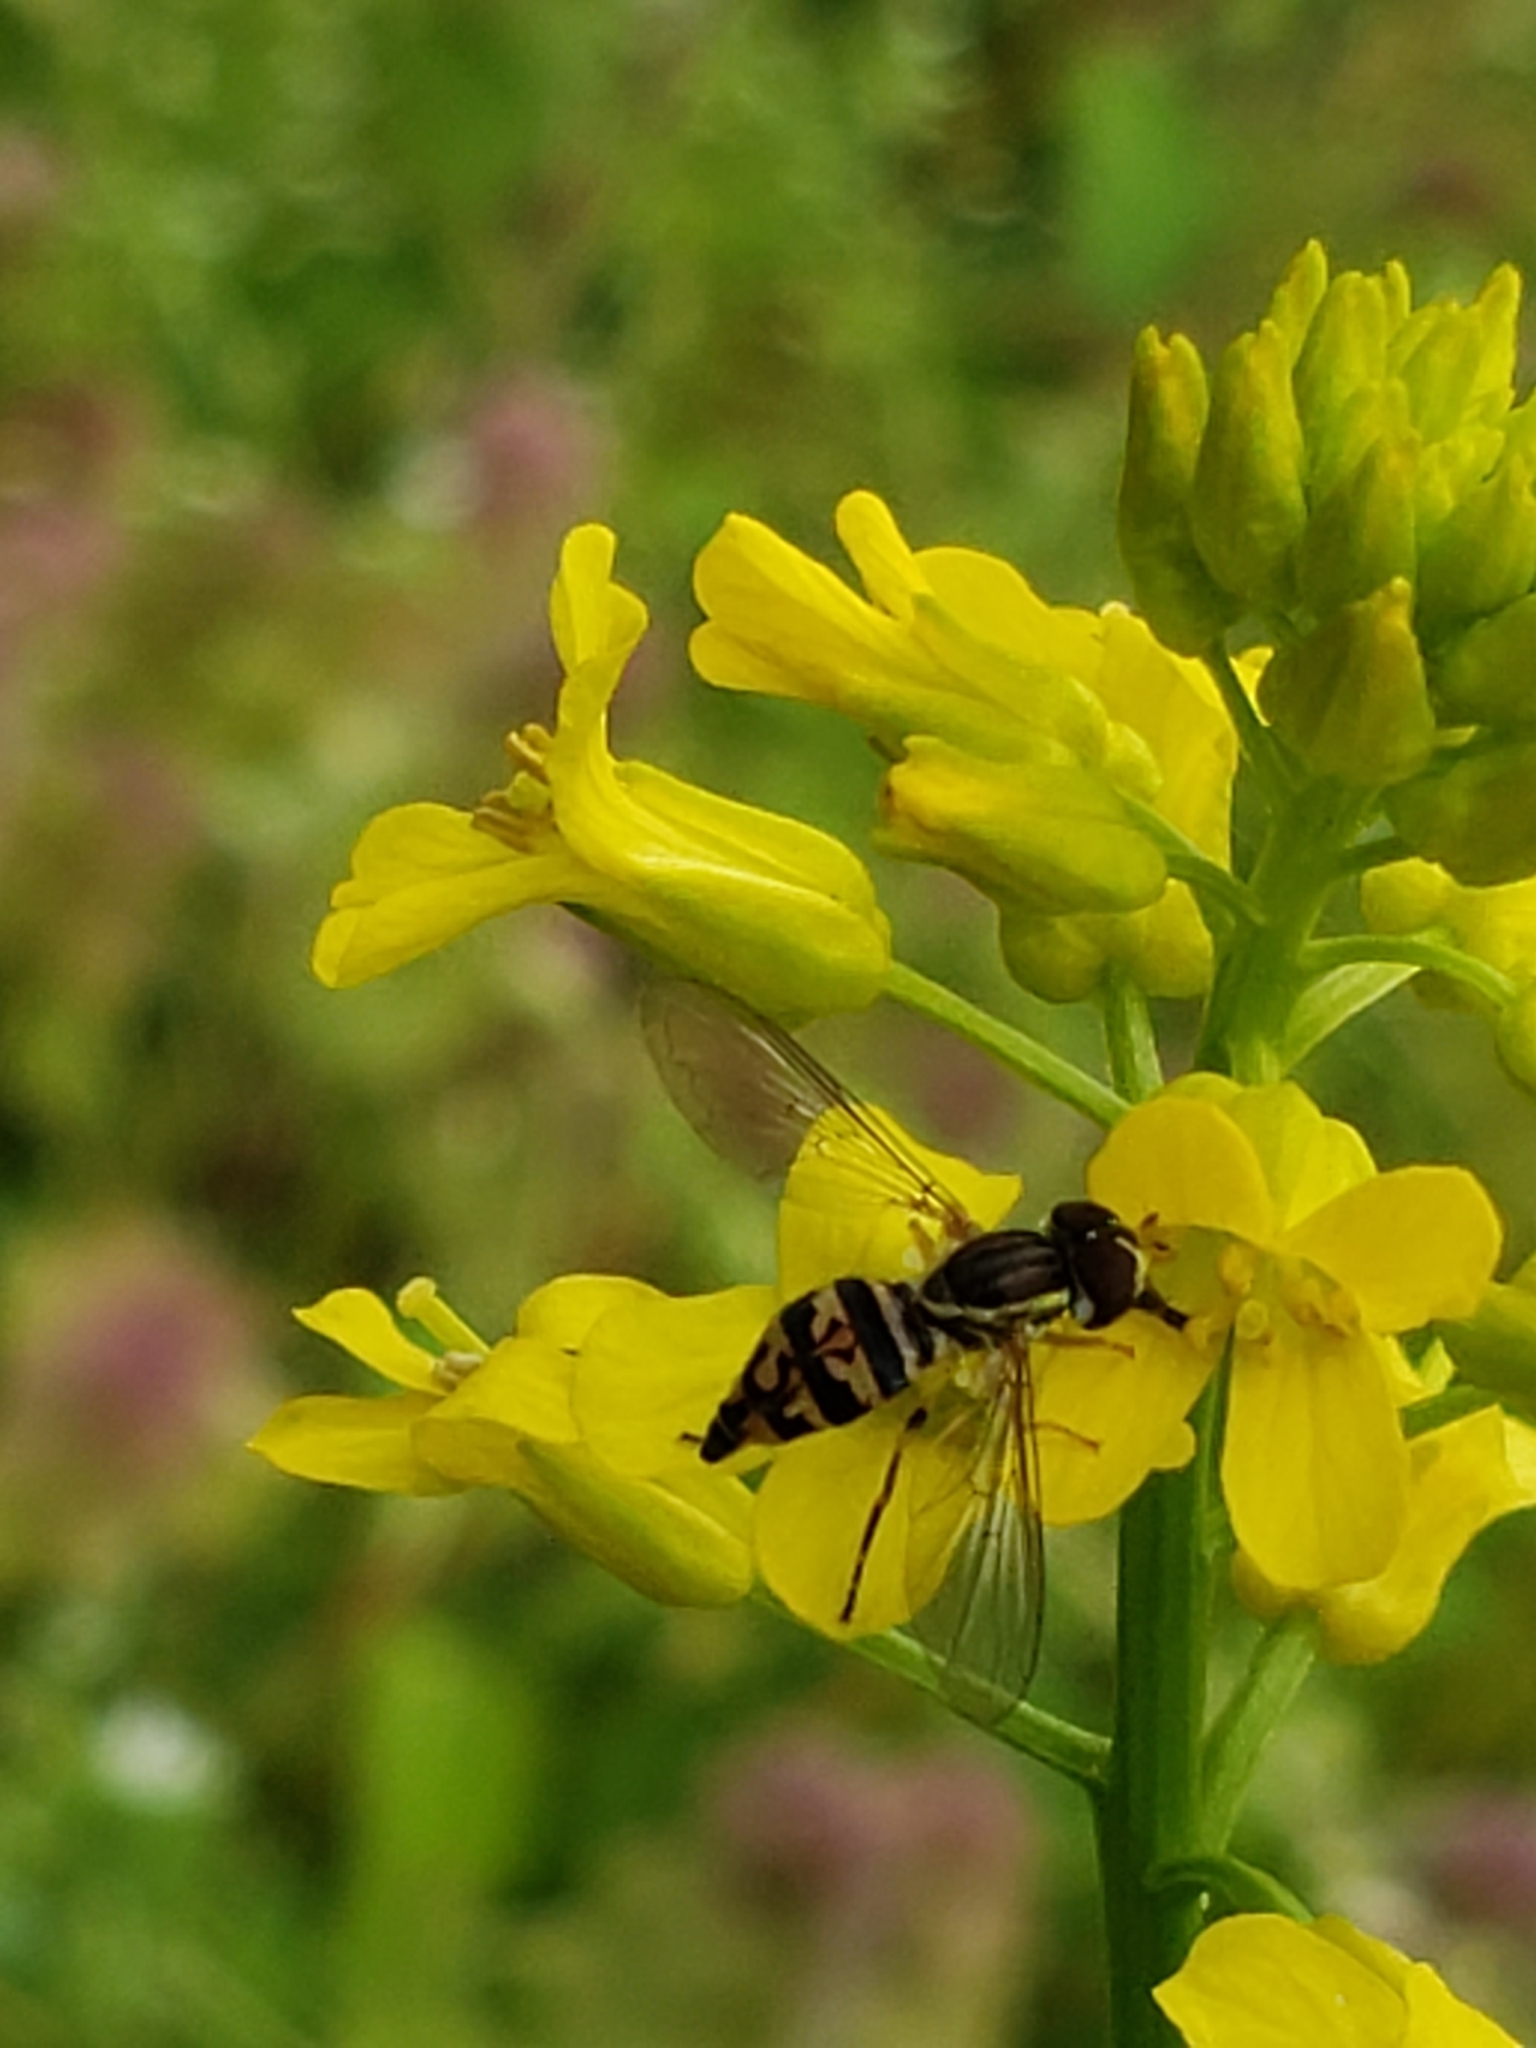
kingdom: Animalia
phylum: Arthropoda
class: Insecta
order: Diptera
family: Syrphidae
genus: Toxomerus
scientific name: Toxomerus geminatus
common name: Eastern calligrapher
